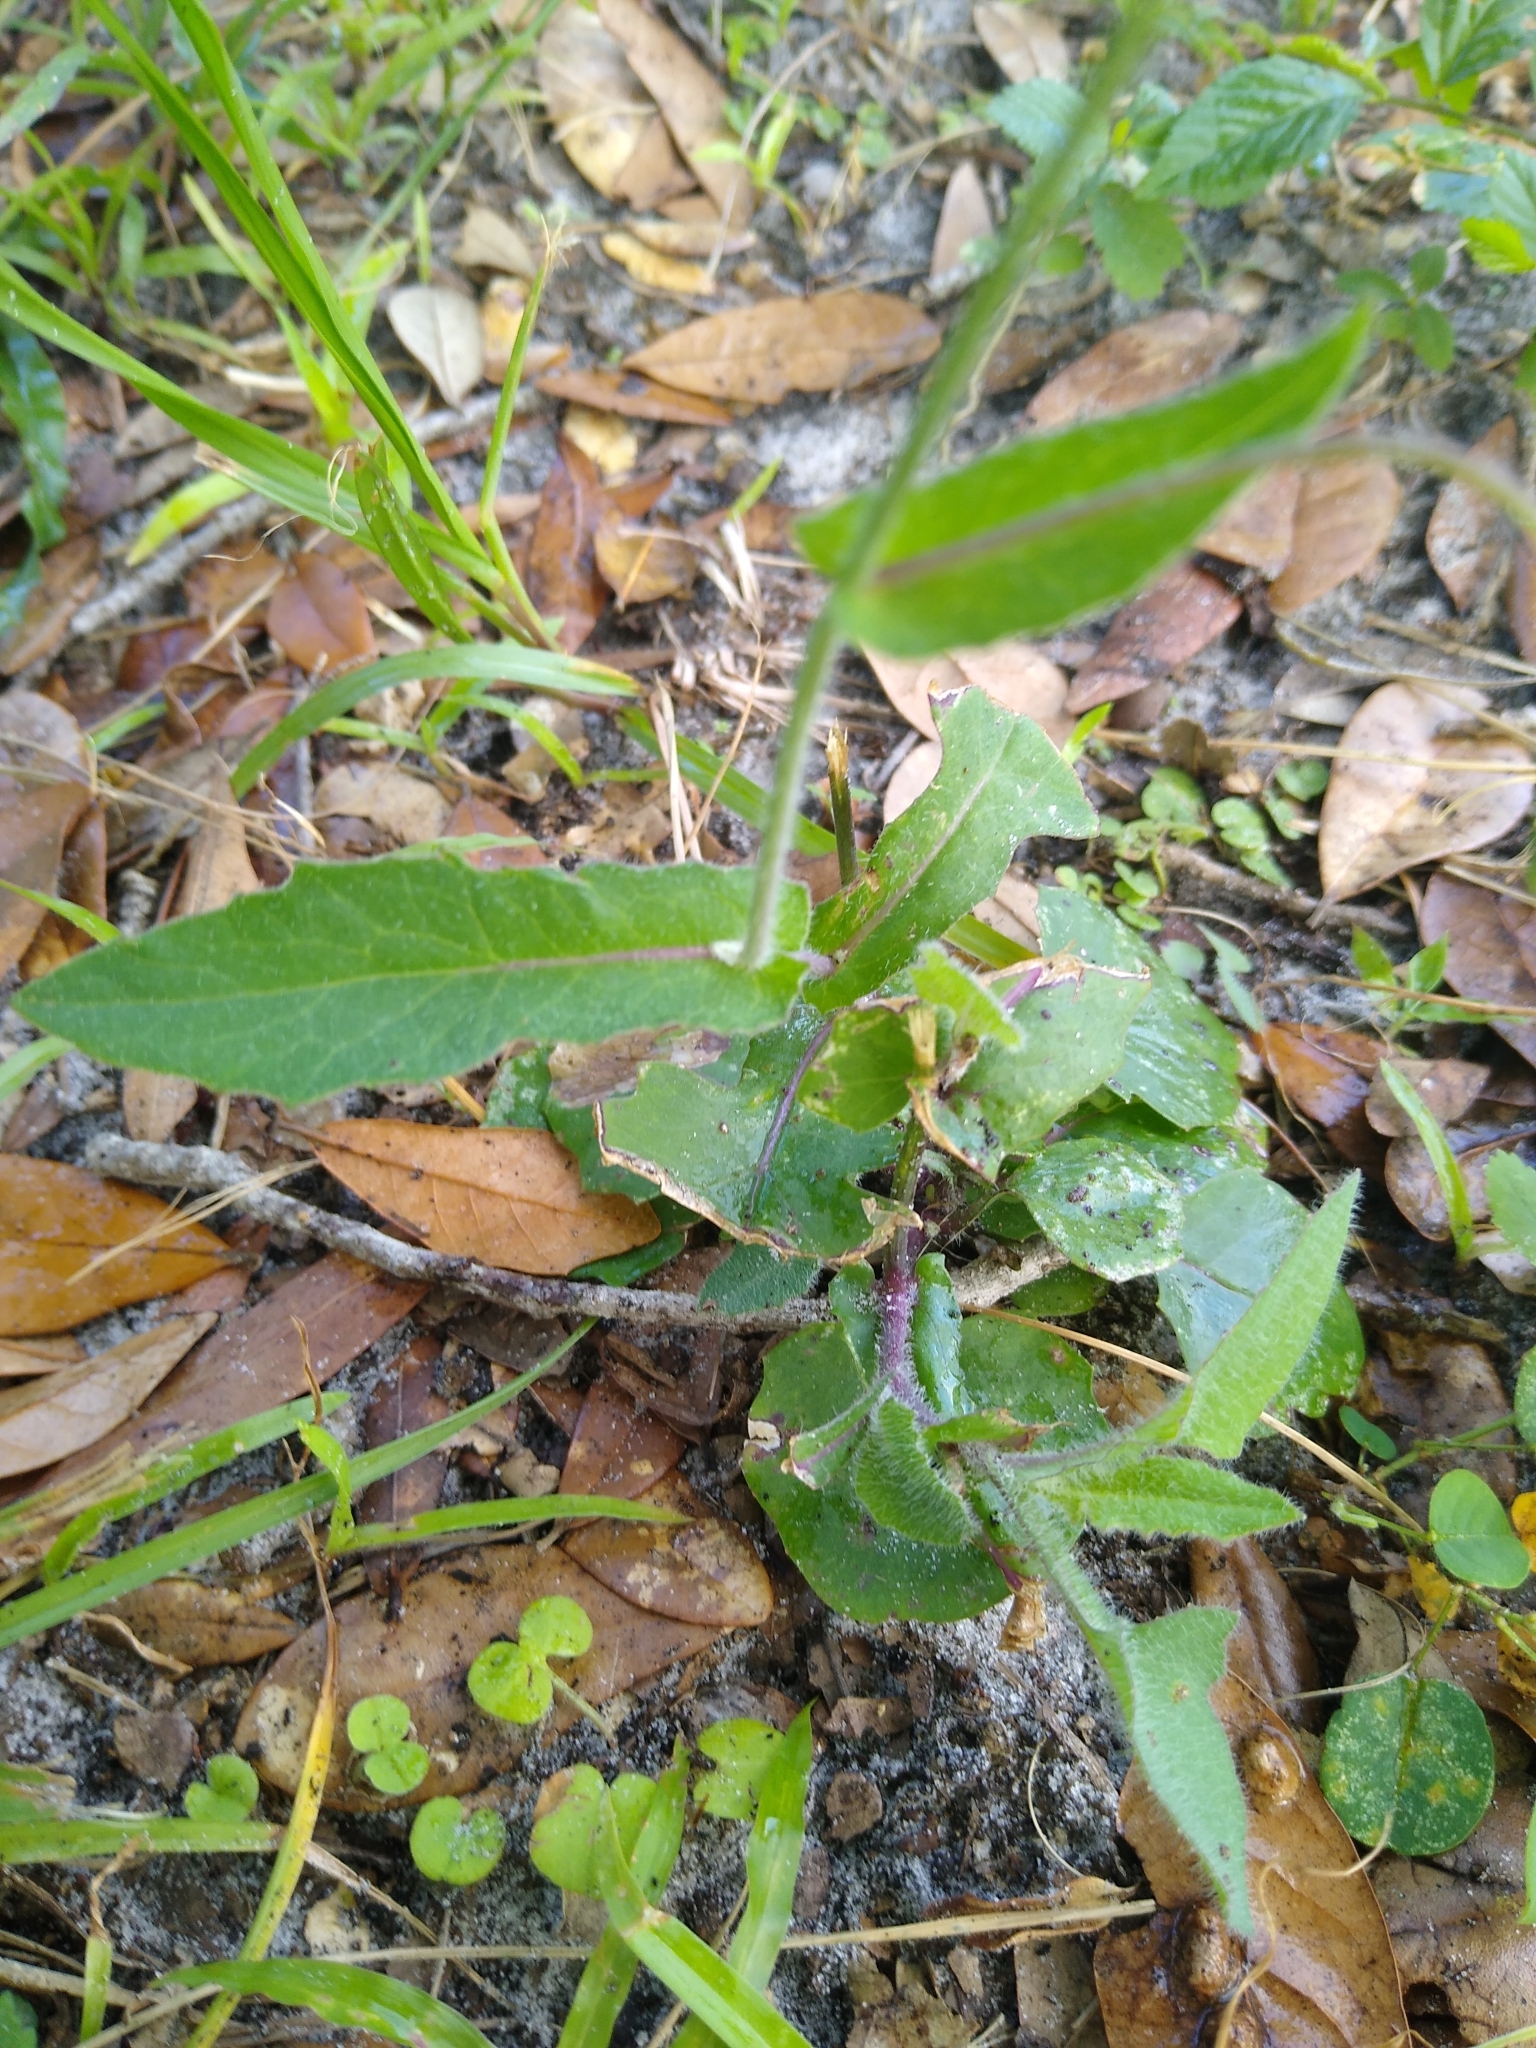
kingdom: Plantae
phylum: Tracheophyta
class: Magnoliopsida
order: Asterales
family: Asteraceae
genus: Emilia
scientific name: Emilia sonchifolia
